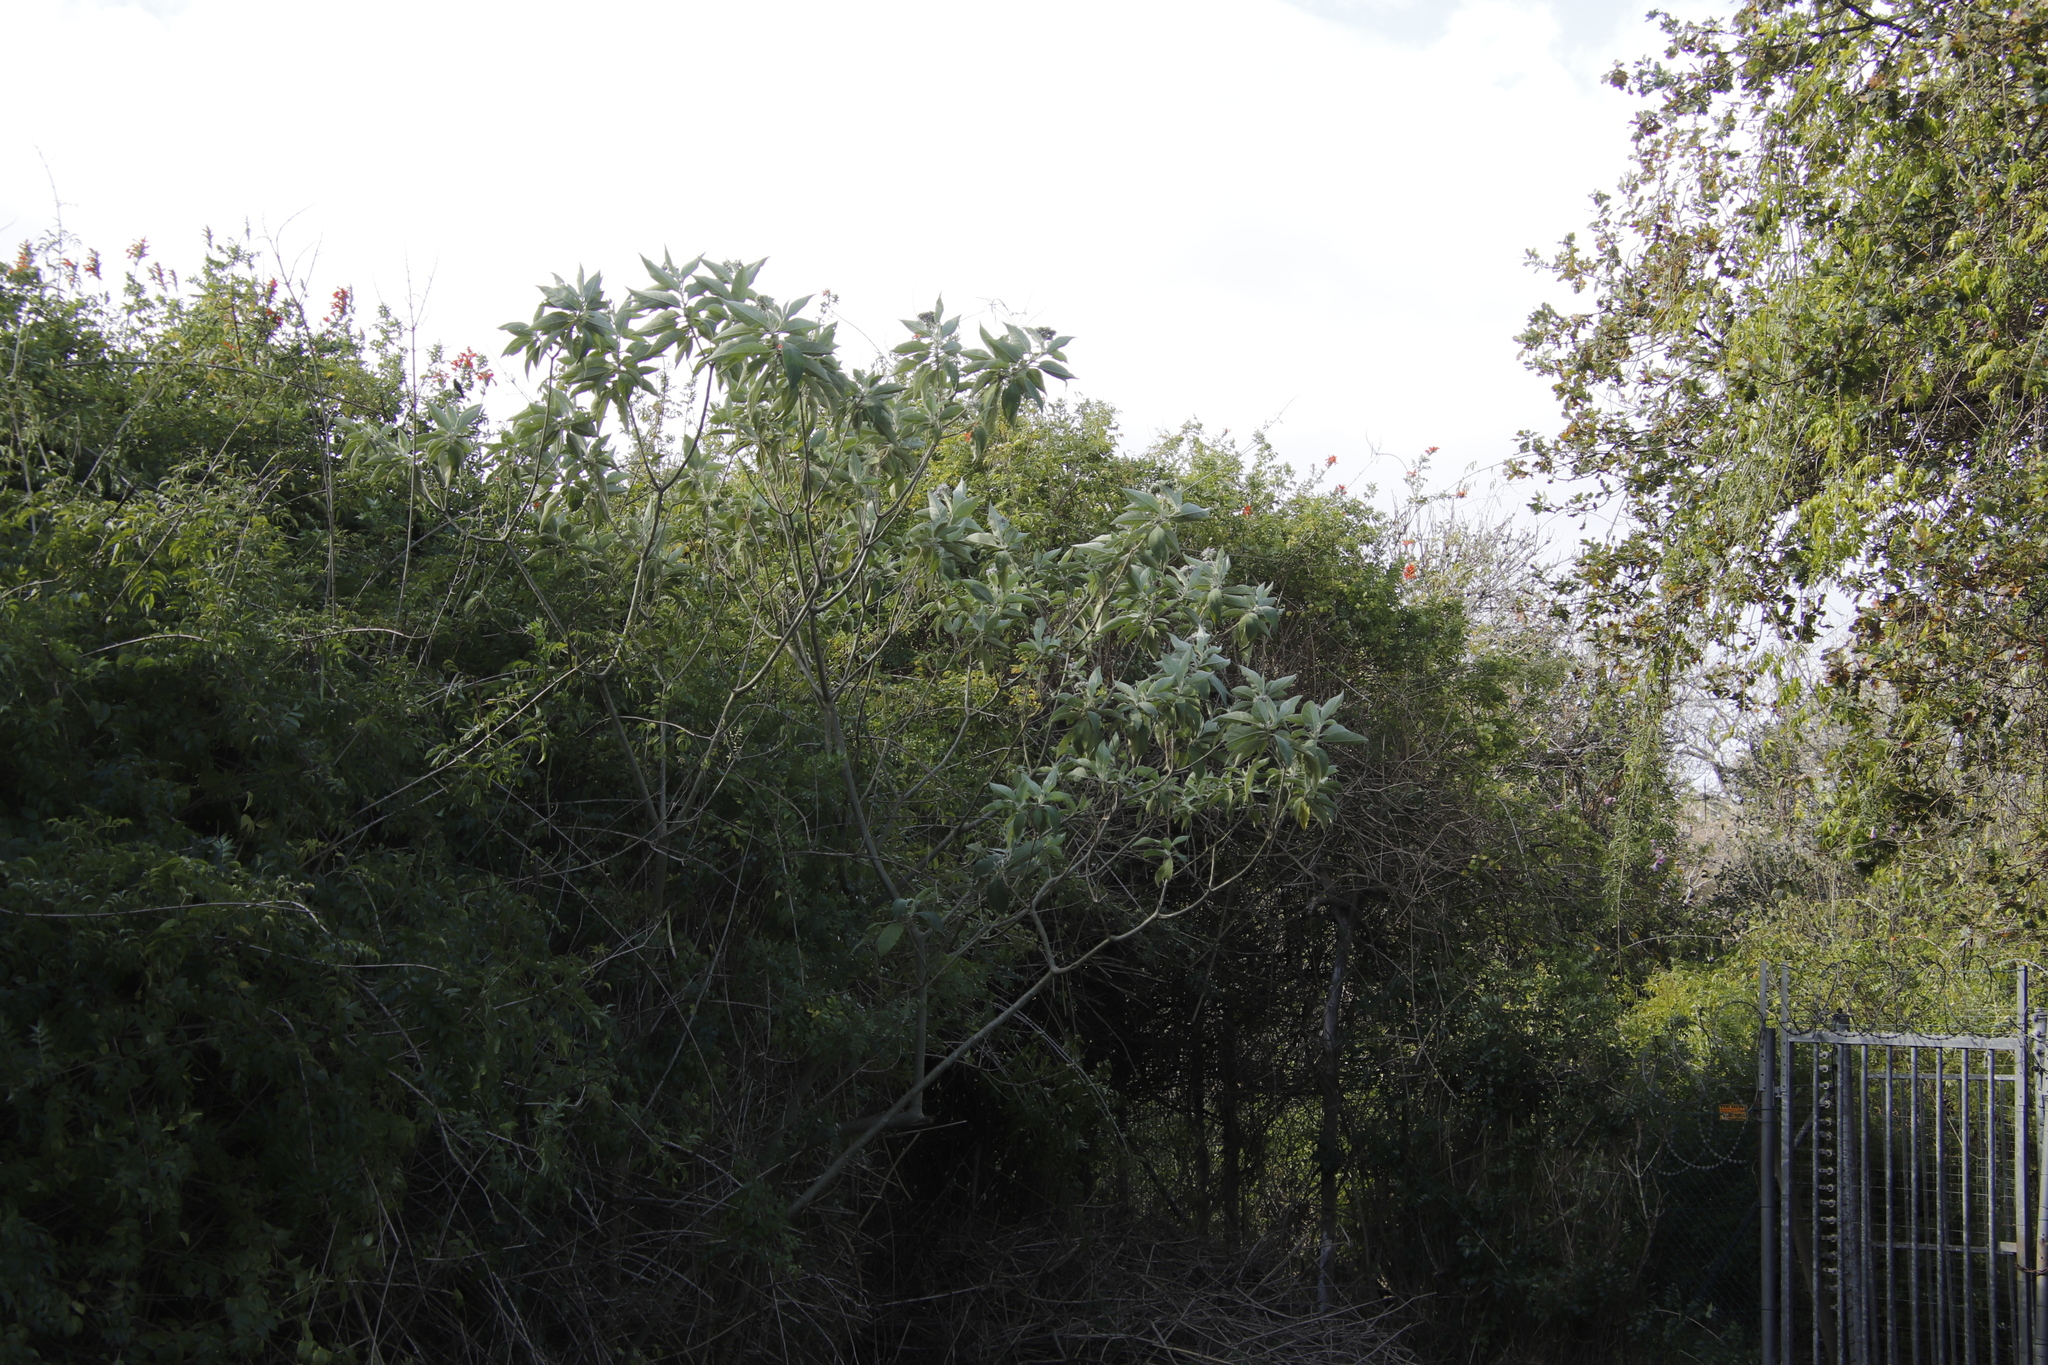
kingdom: Plantae
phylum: Tracheophyta
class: Magnoliopsida
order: Solanales
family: Solanaceae
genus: Solanum
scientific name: Solanum mauritianum
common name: Earleaf nightshade
